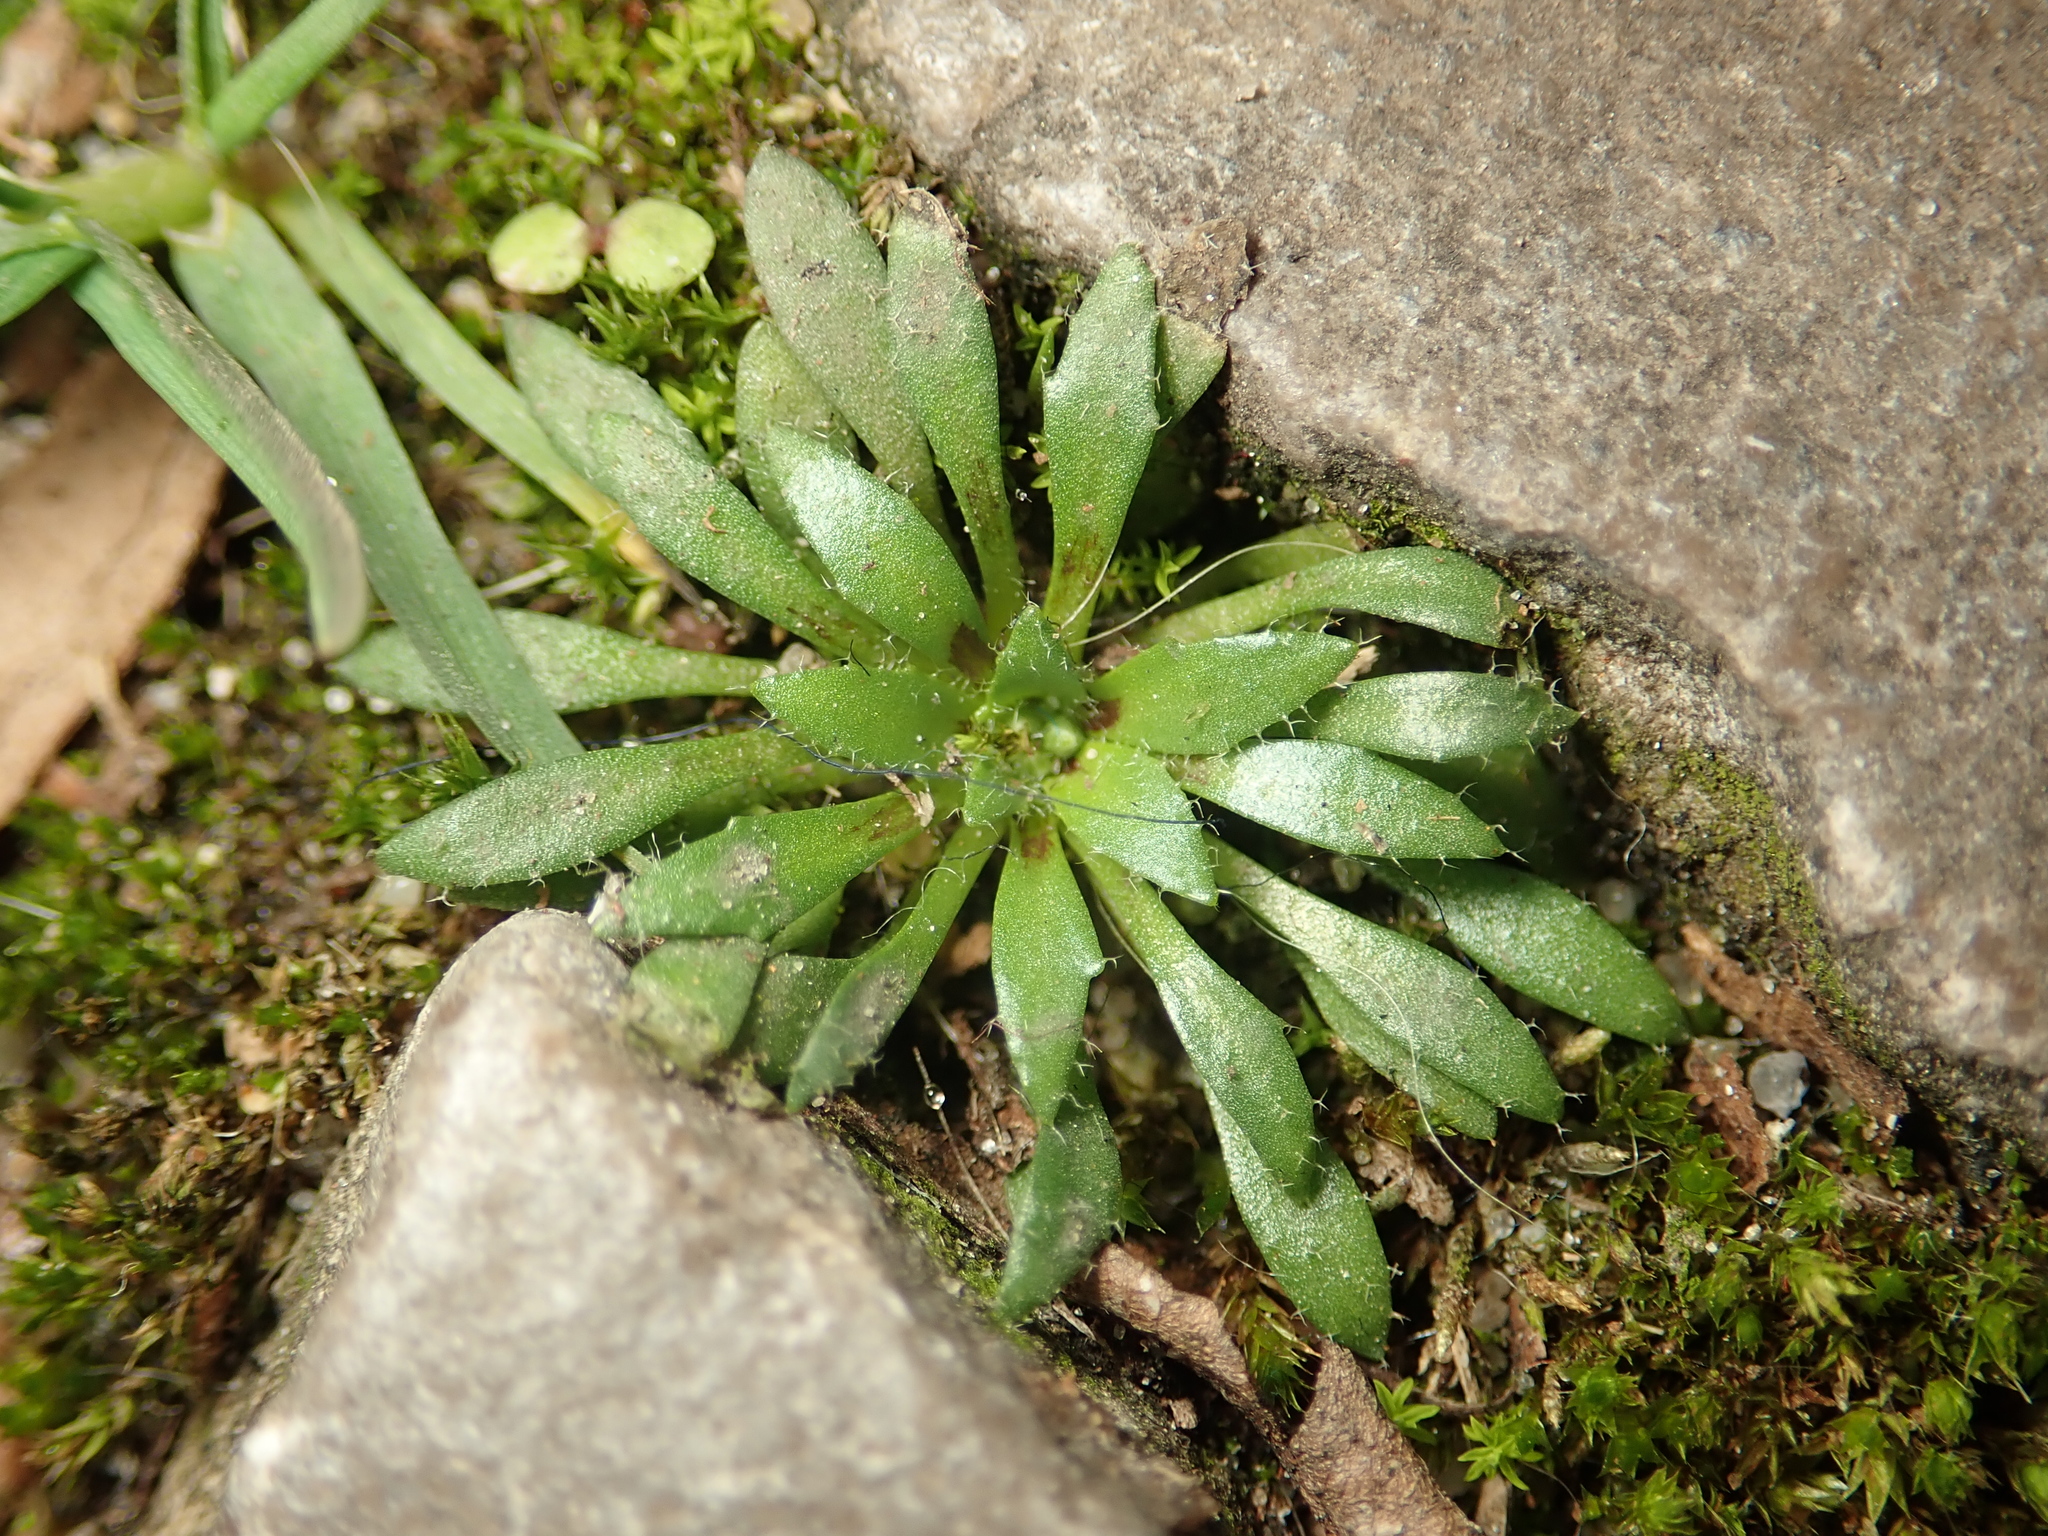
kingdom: Plantae
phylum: Tracheophyta
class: Magnoliopsida
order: Brassicales
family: Brassicaceae
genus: Draba
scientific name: Draba verna
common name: Spring draba
